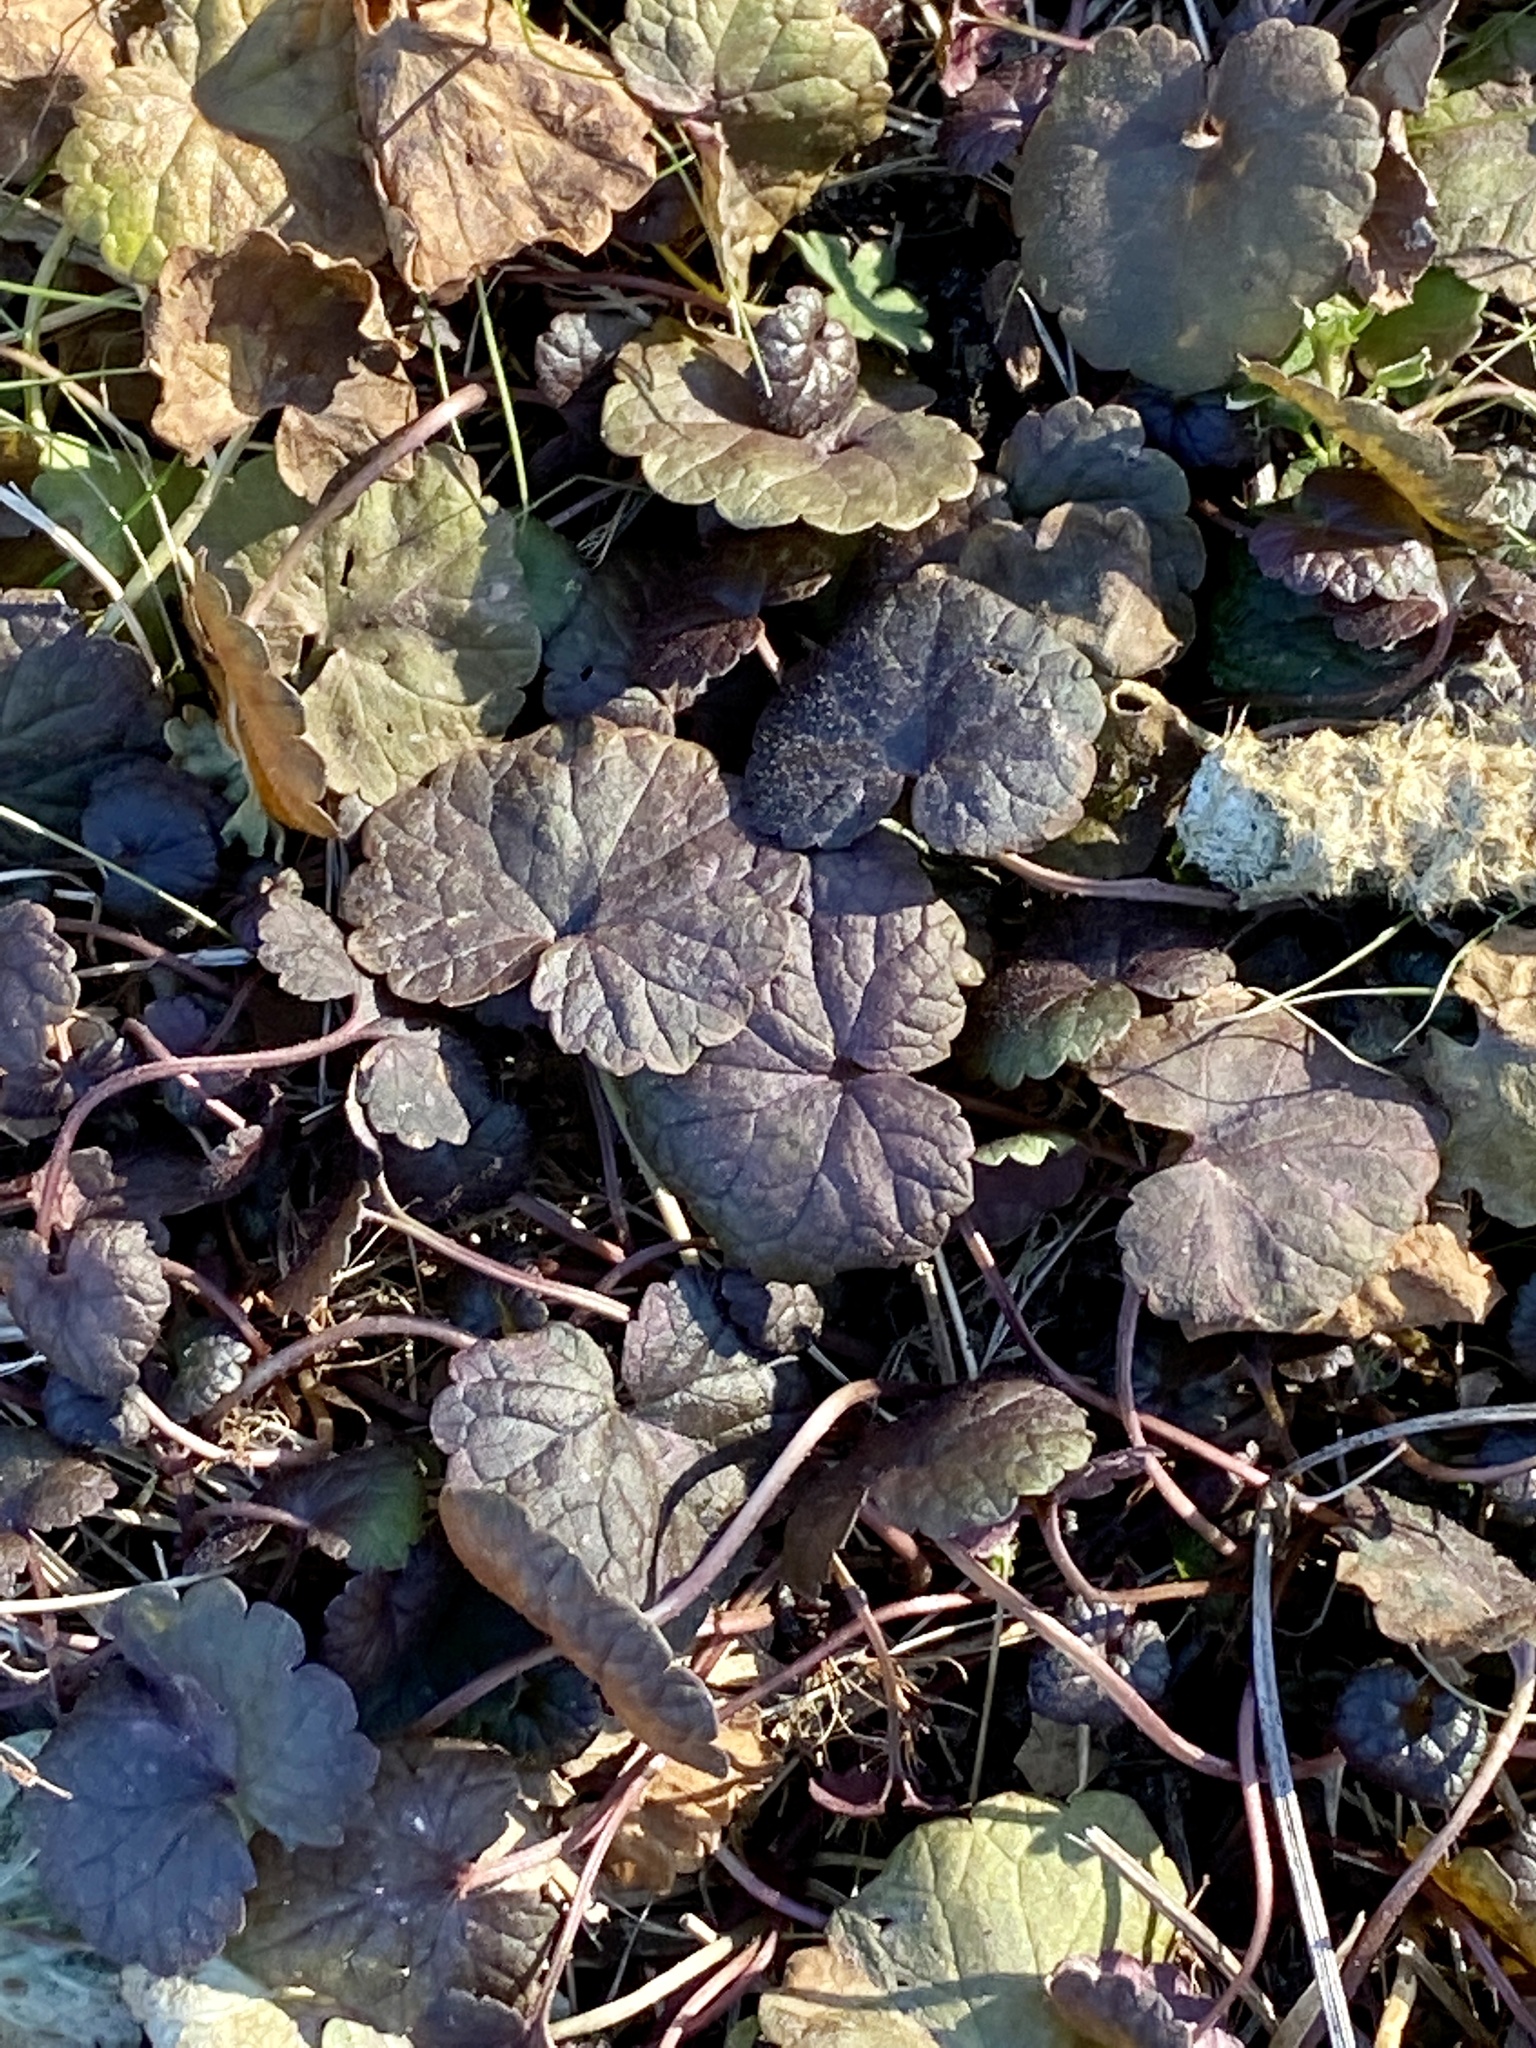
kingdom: Plantae
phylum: Tracheophyta
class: Magnoliopsida
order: Lamiales
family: Lamiaceae
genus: Glechoma
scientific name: Glechoma hederacea
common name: Ground ivy
